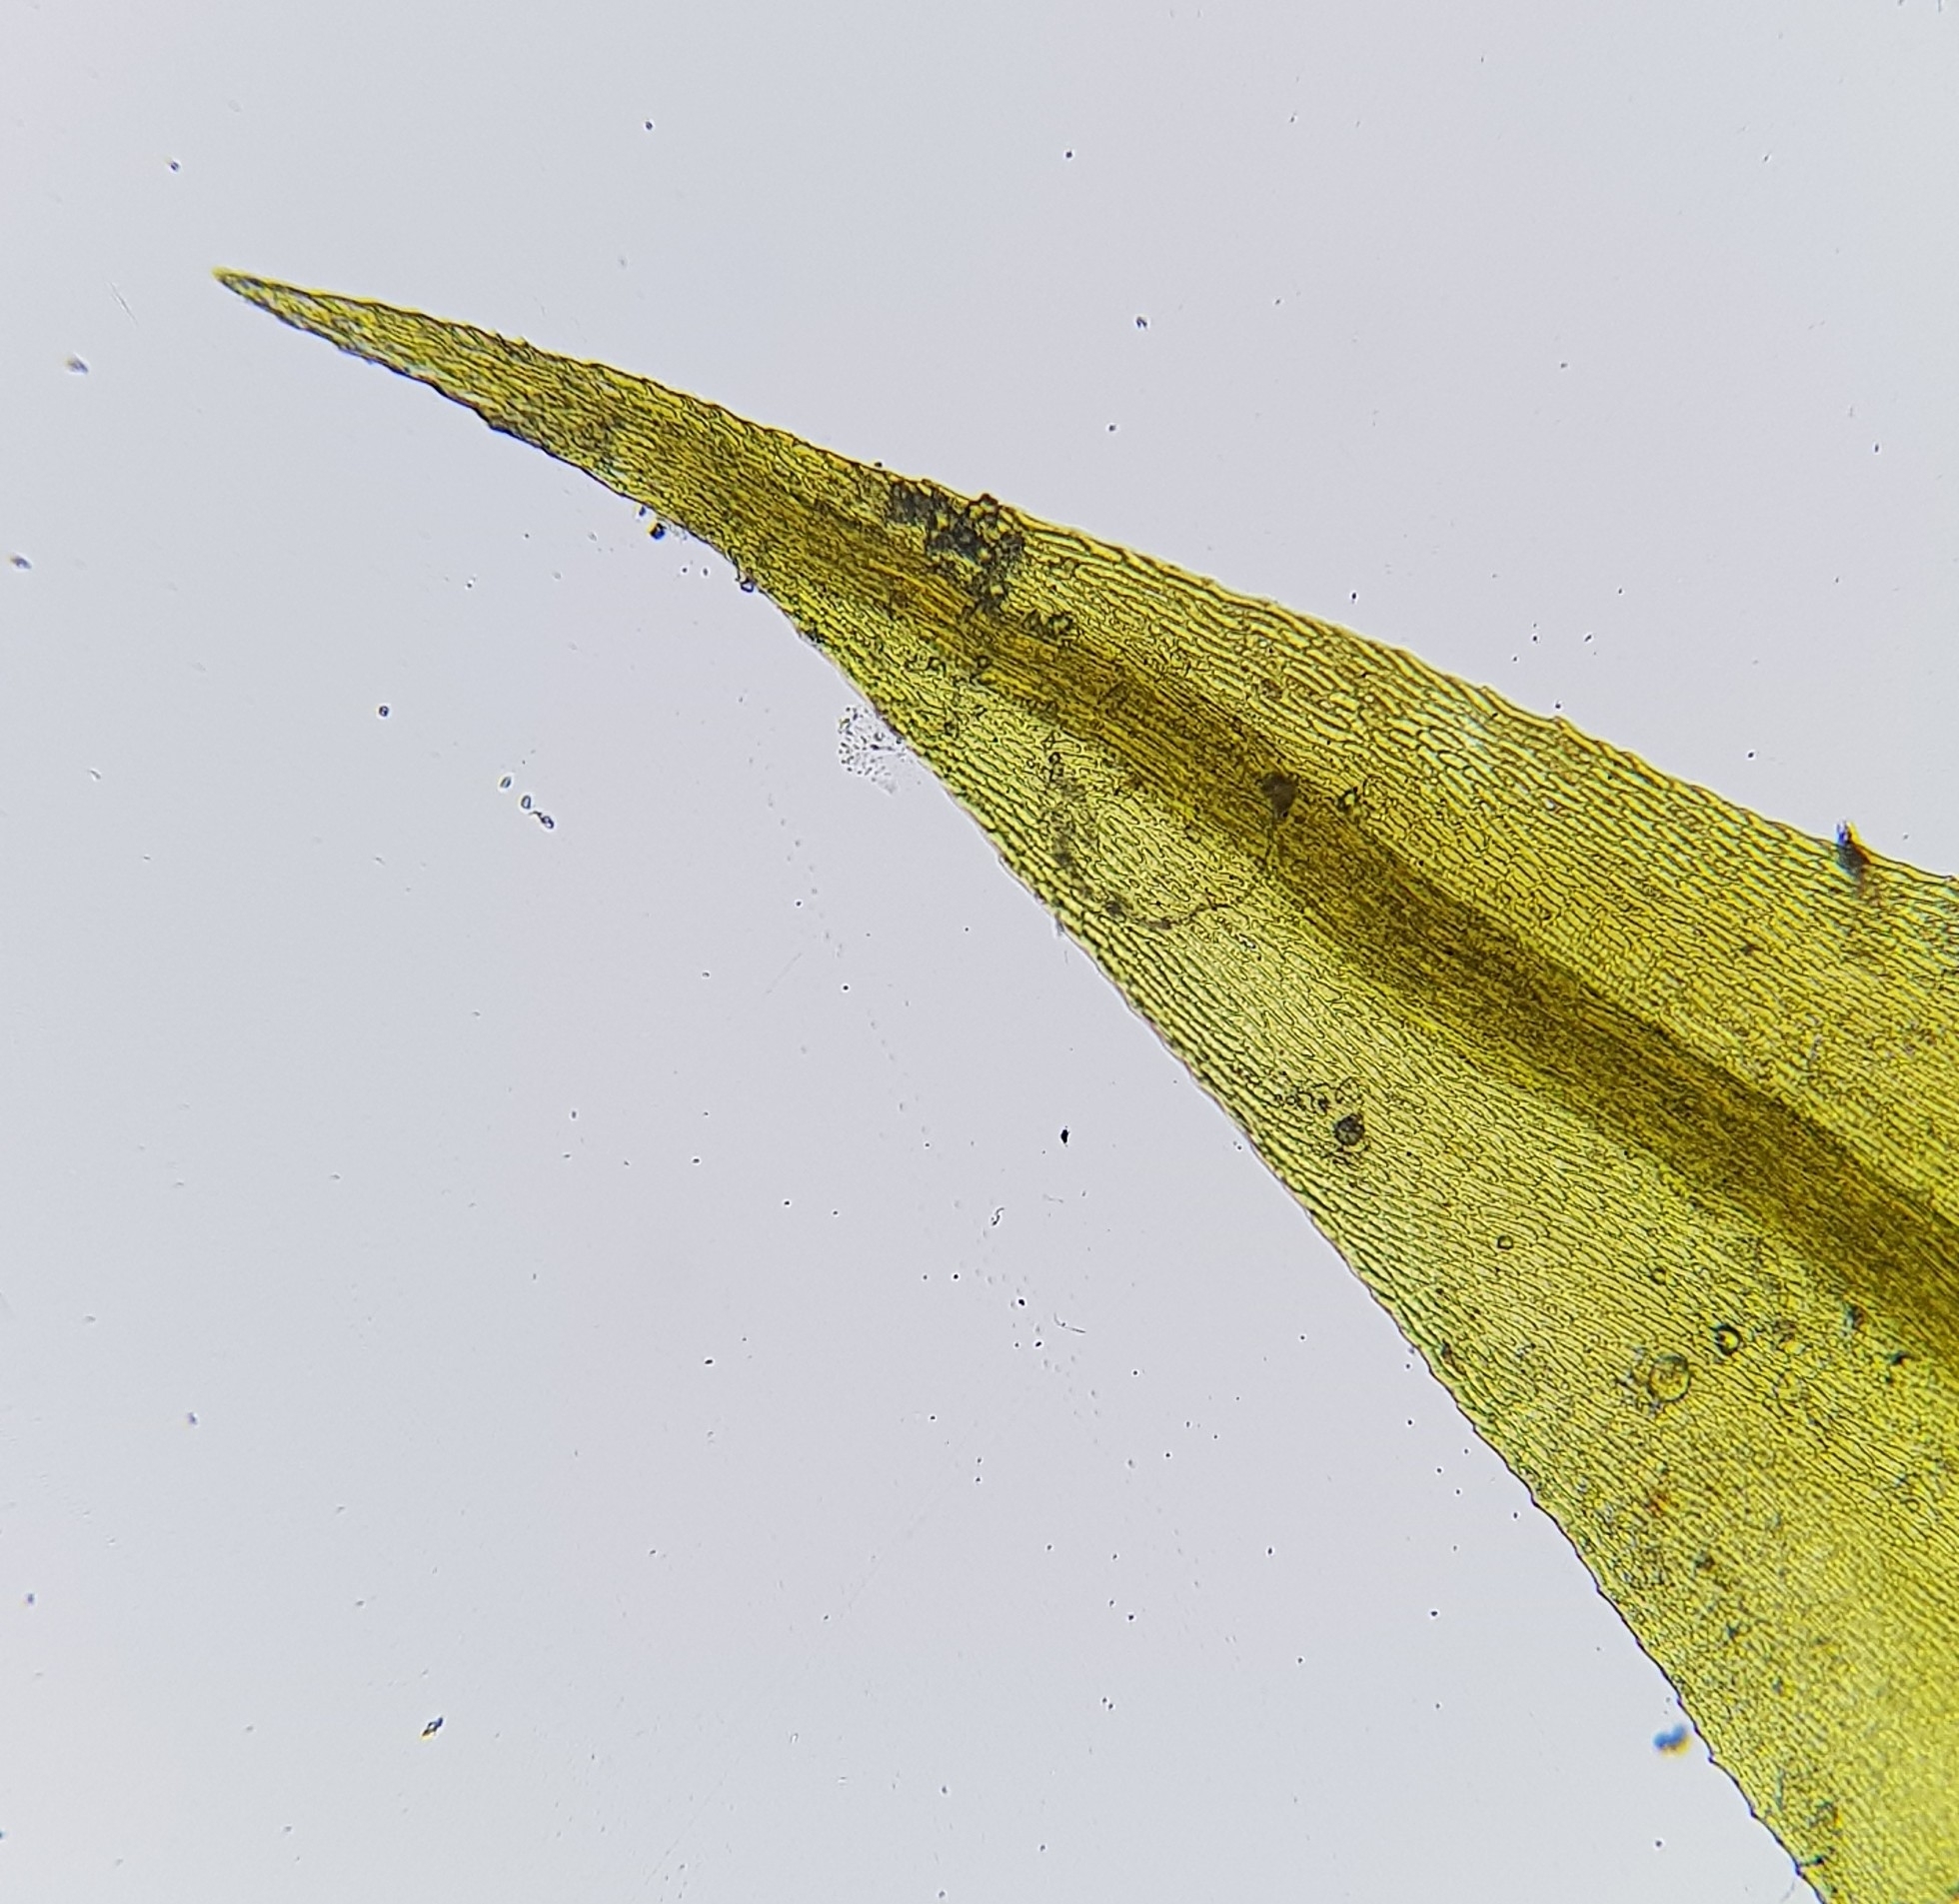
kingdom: Plantae
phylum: Bryophyta
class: Bryopsida
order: Hypnales
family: Amblystegiaceae
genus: Cratoneuron
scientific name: Cratoneuron filicinum
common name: Fern-leaved hook moss
